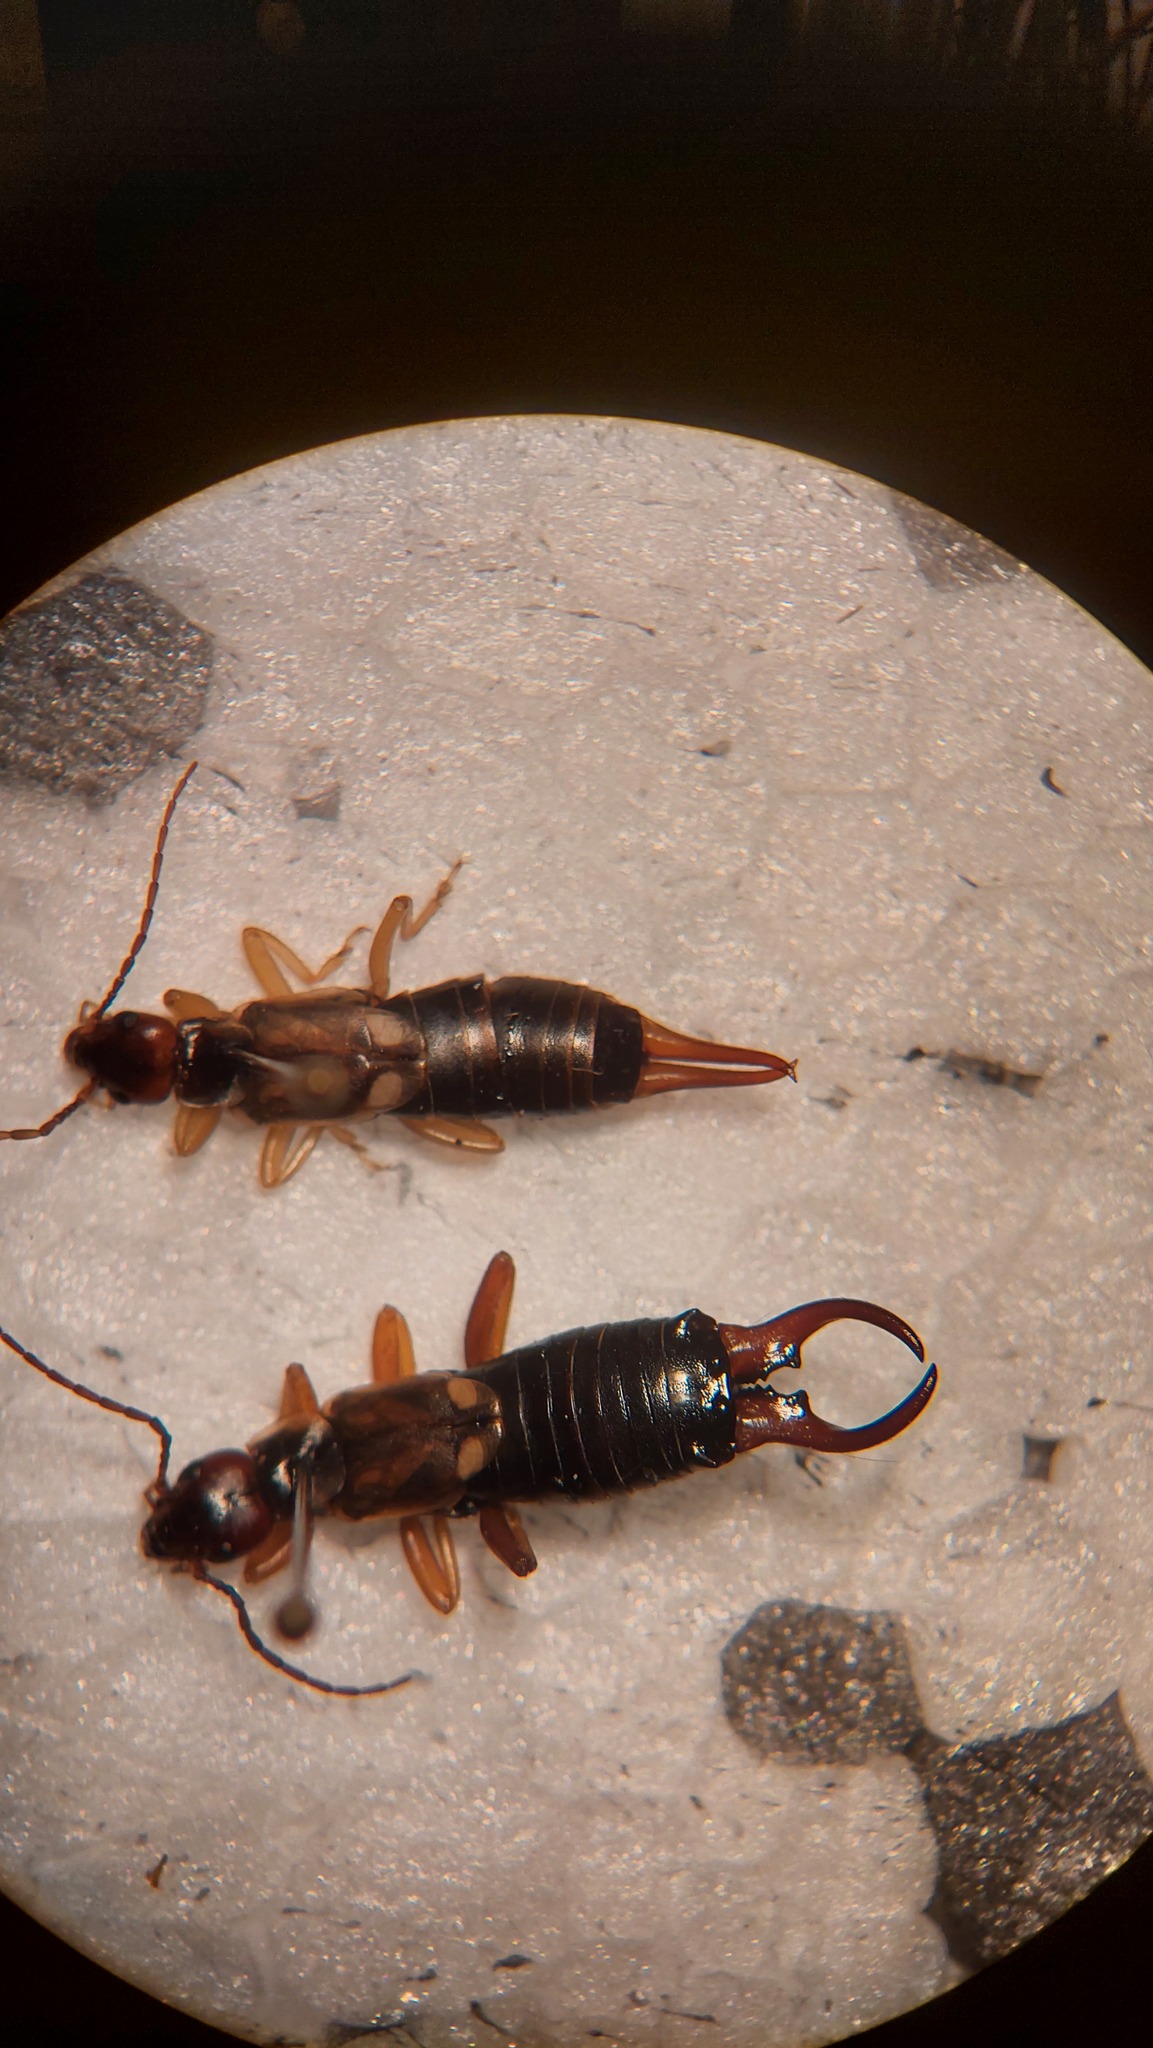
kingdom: Animalia
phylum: Arthropoda
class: Insecta
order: Dermaptera
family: Forficulidae
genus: Forficula
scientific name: Forficula
